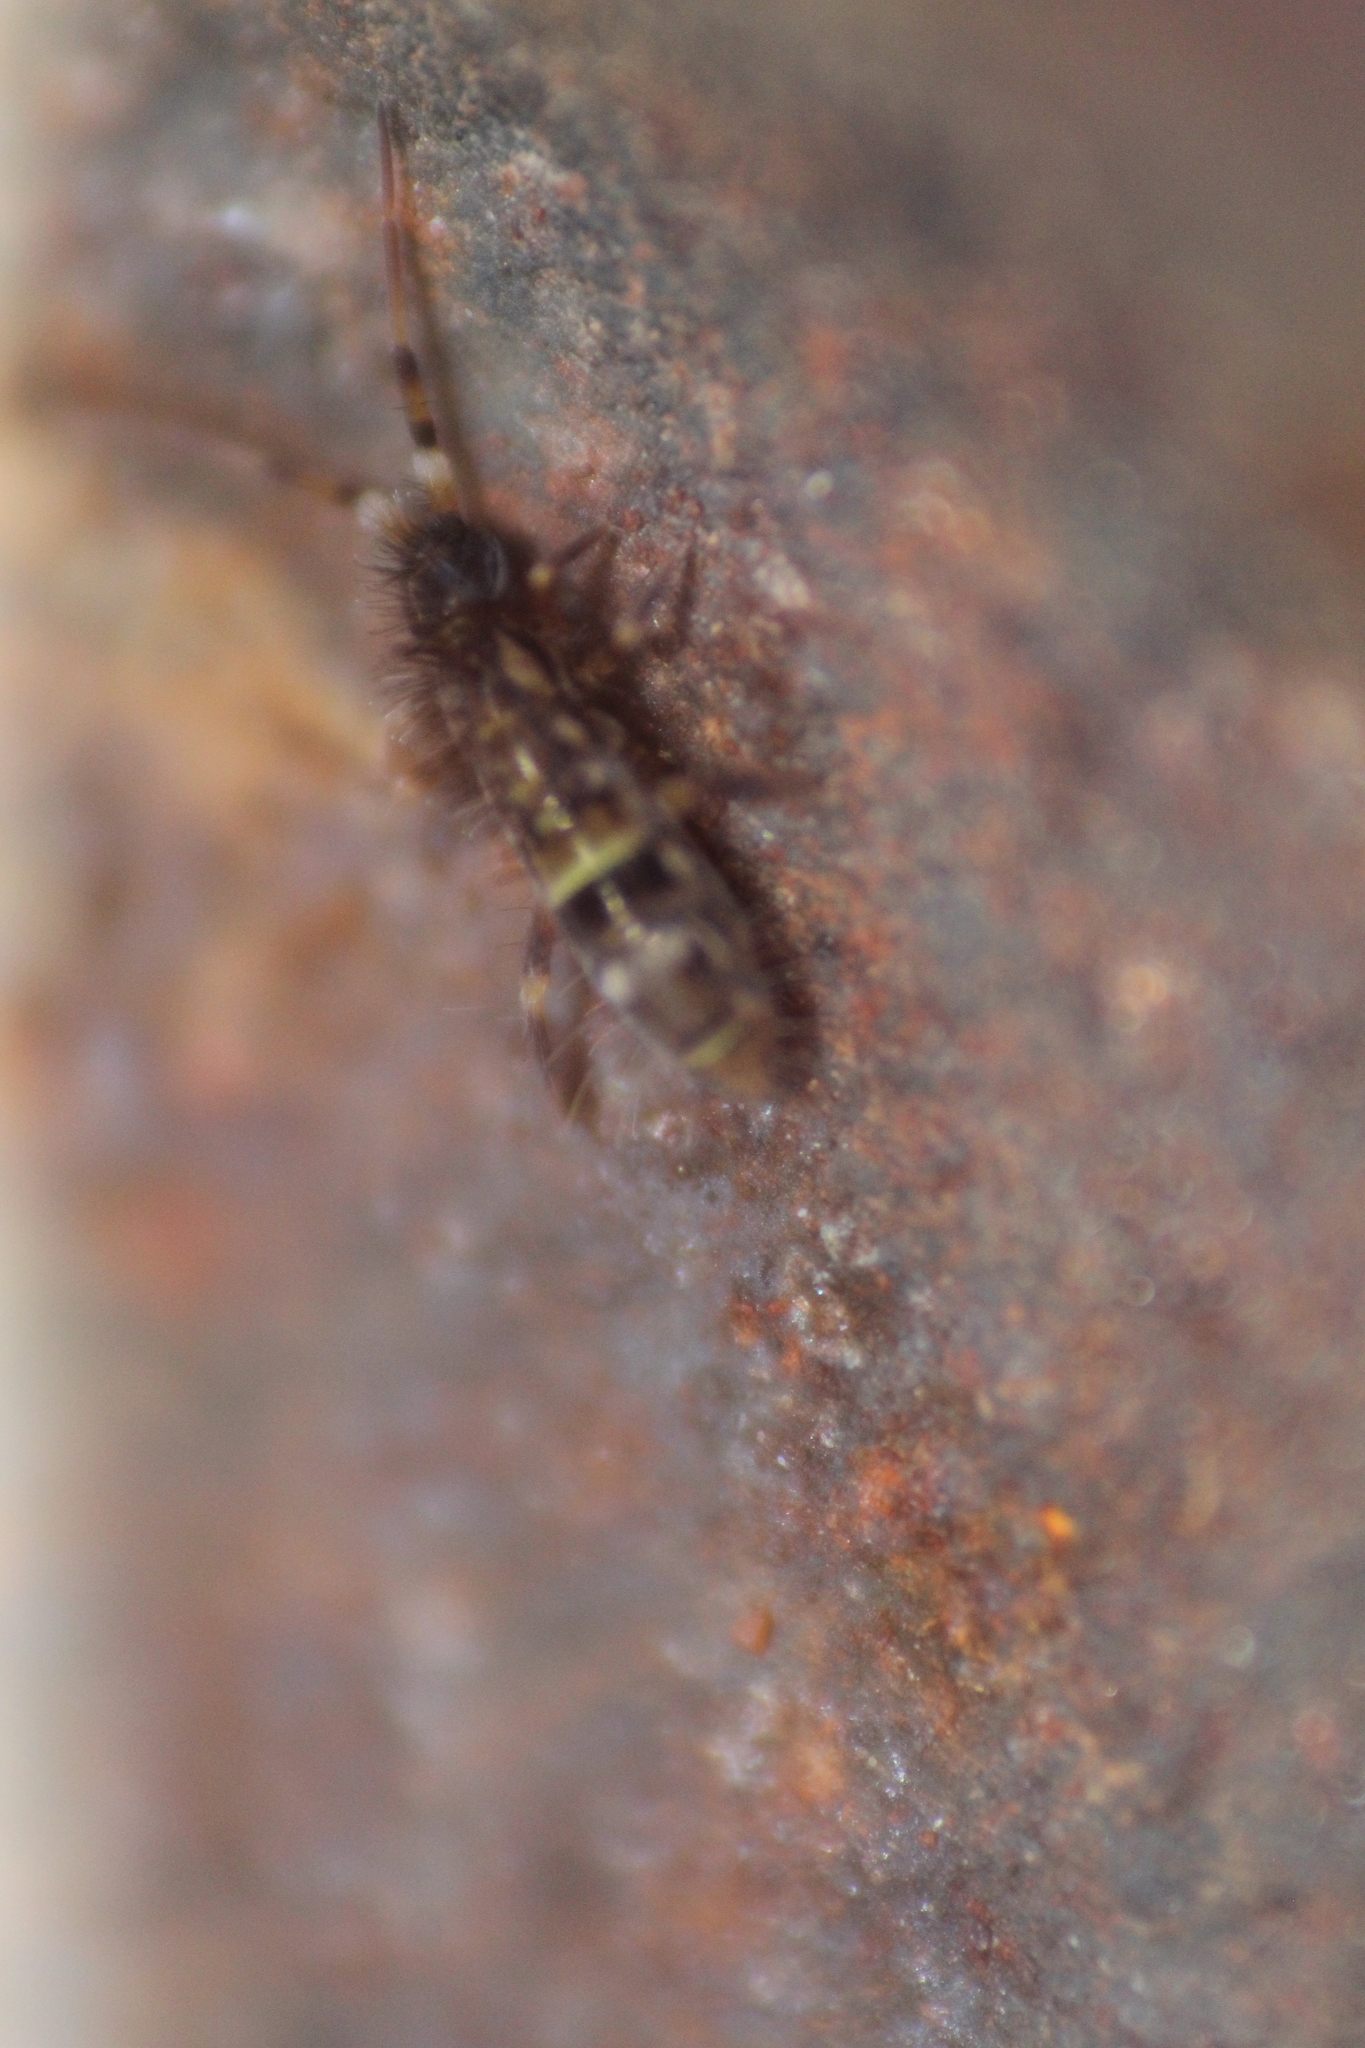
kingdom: Animalia
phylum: Arthropoda
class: Collembola
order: Entomobryomorpha
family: Orchesellidae
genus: Orchesella
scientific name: Orchesella cincta
